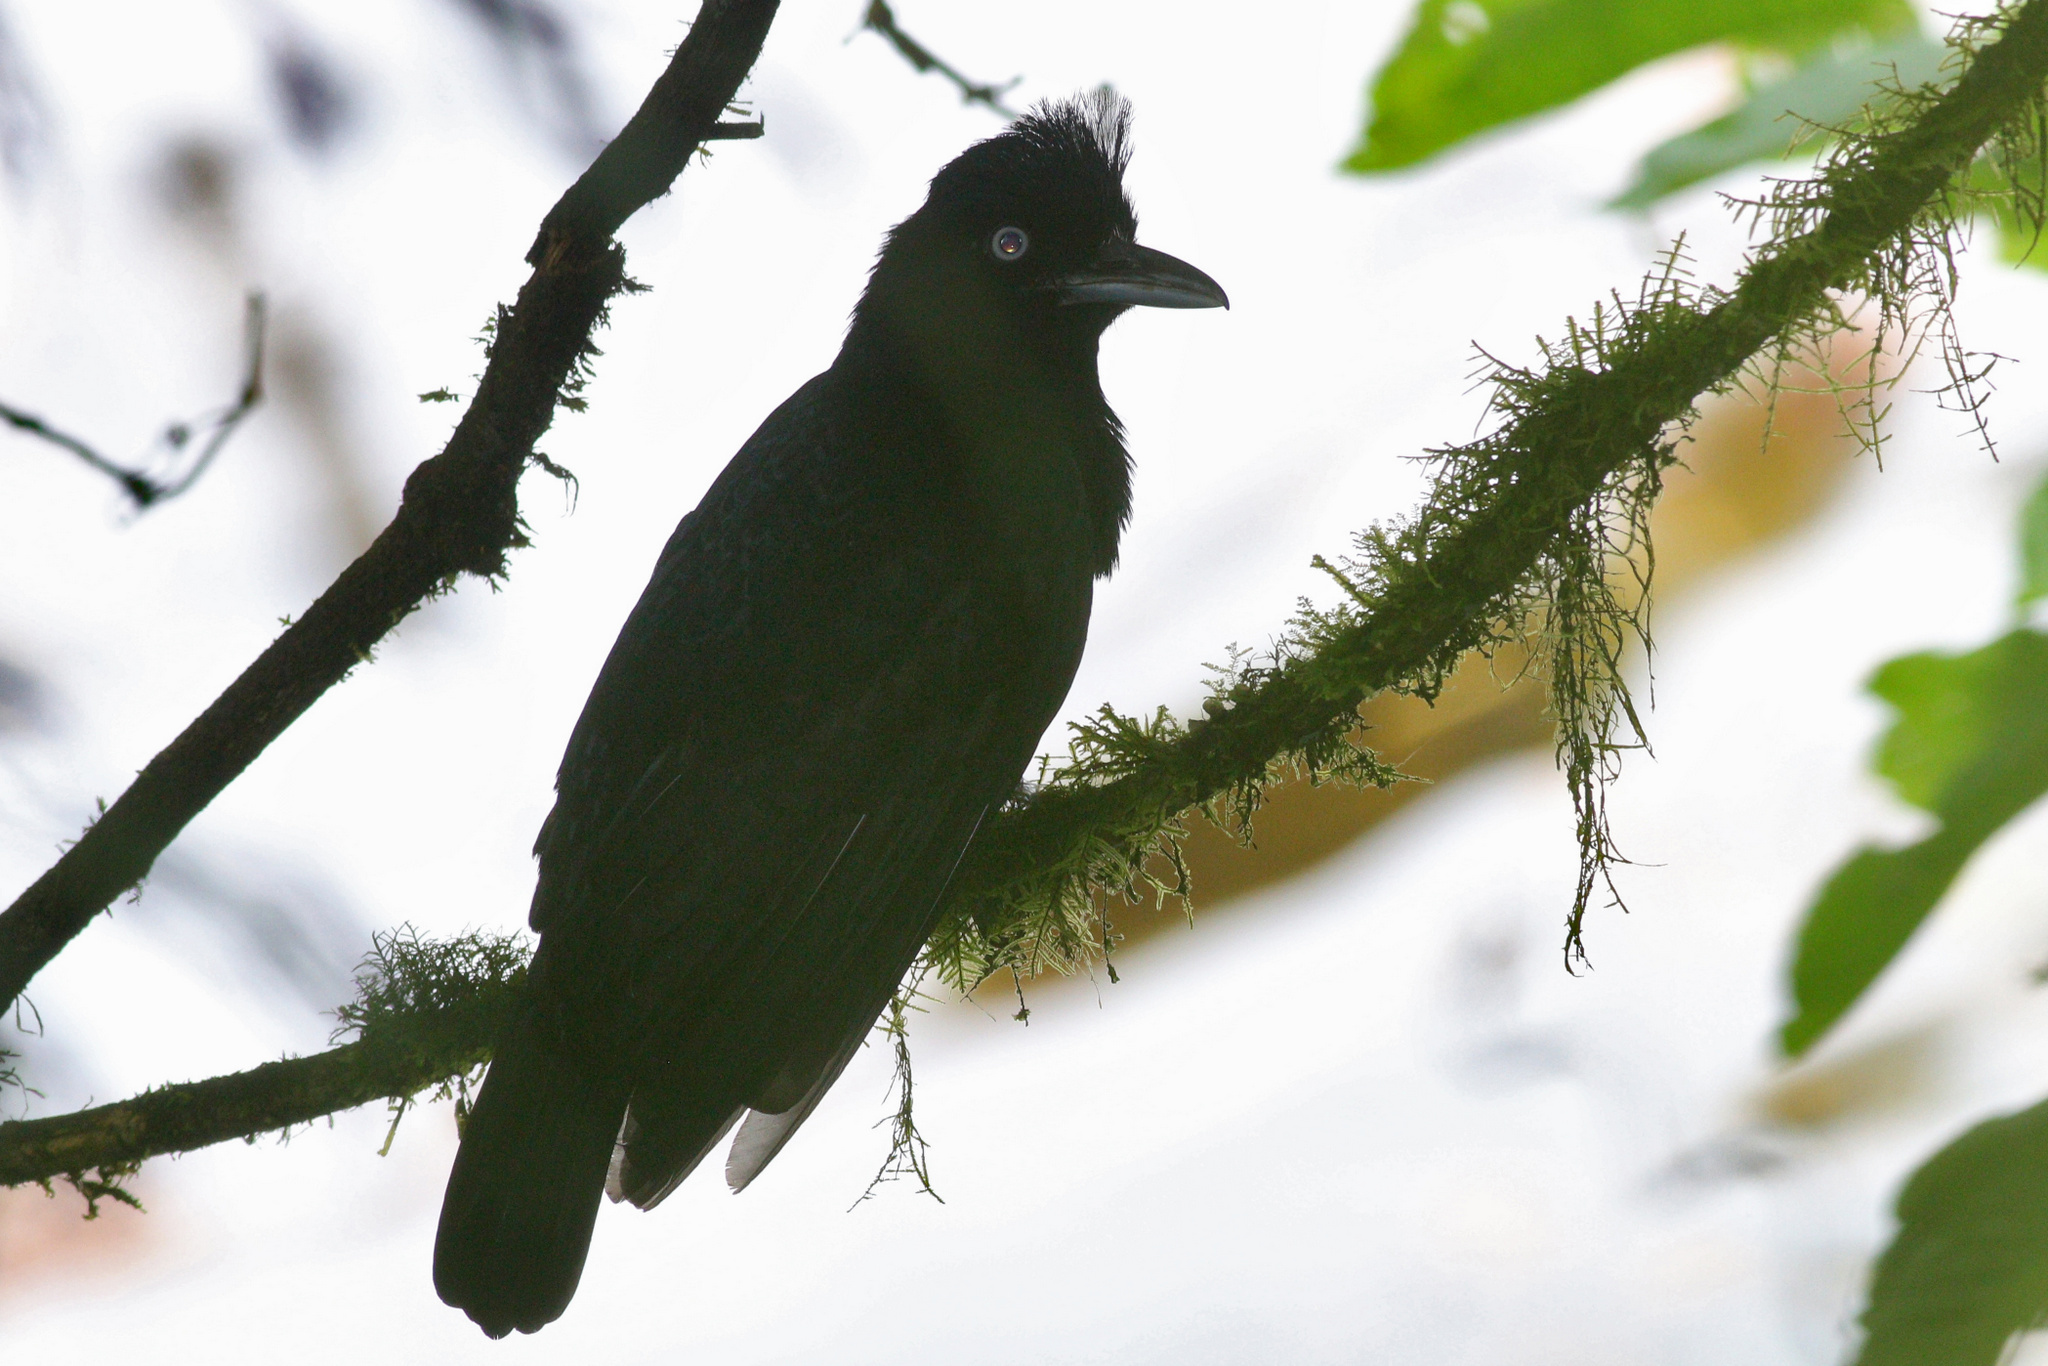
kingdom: Animalia
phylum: Chordata
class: Aves
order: Passeriformes
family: Cotingidae
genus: Cephalopterus
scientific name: Cephalopterus ornatus
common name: Amazonian umbrellabird
